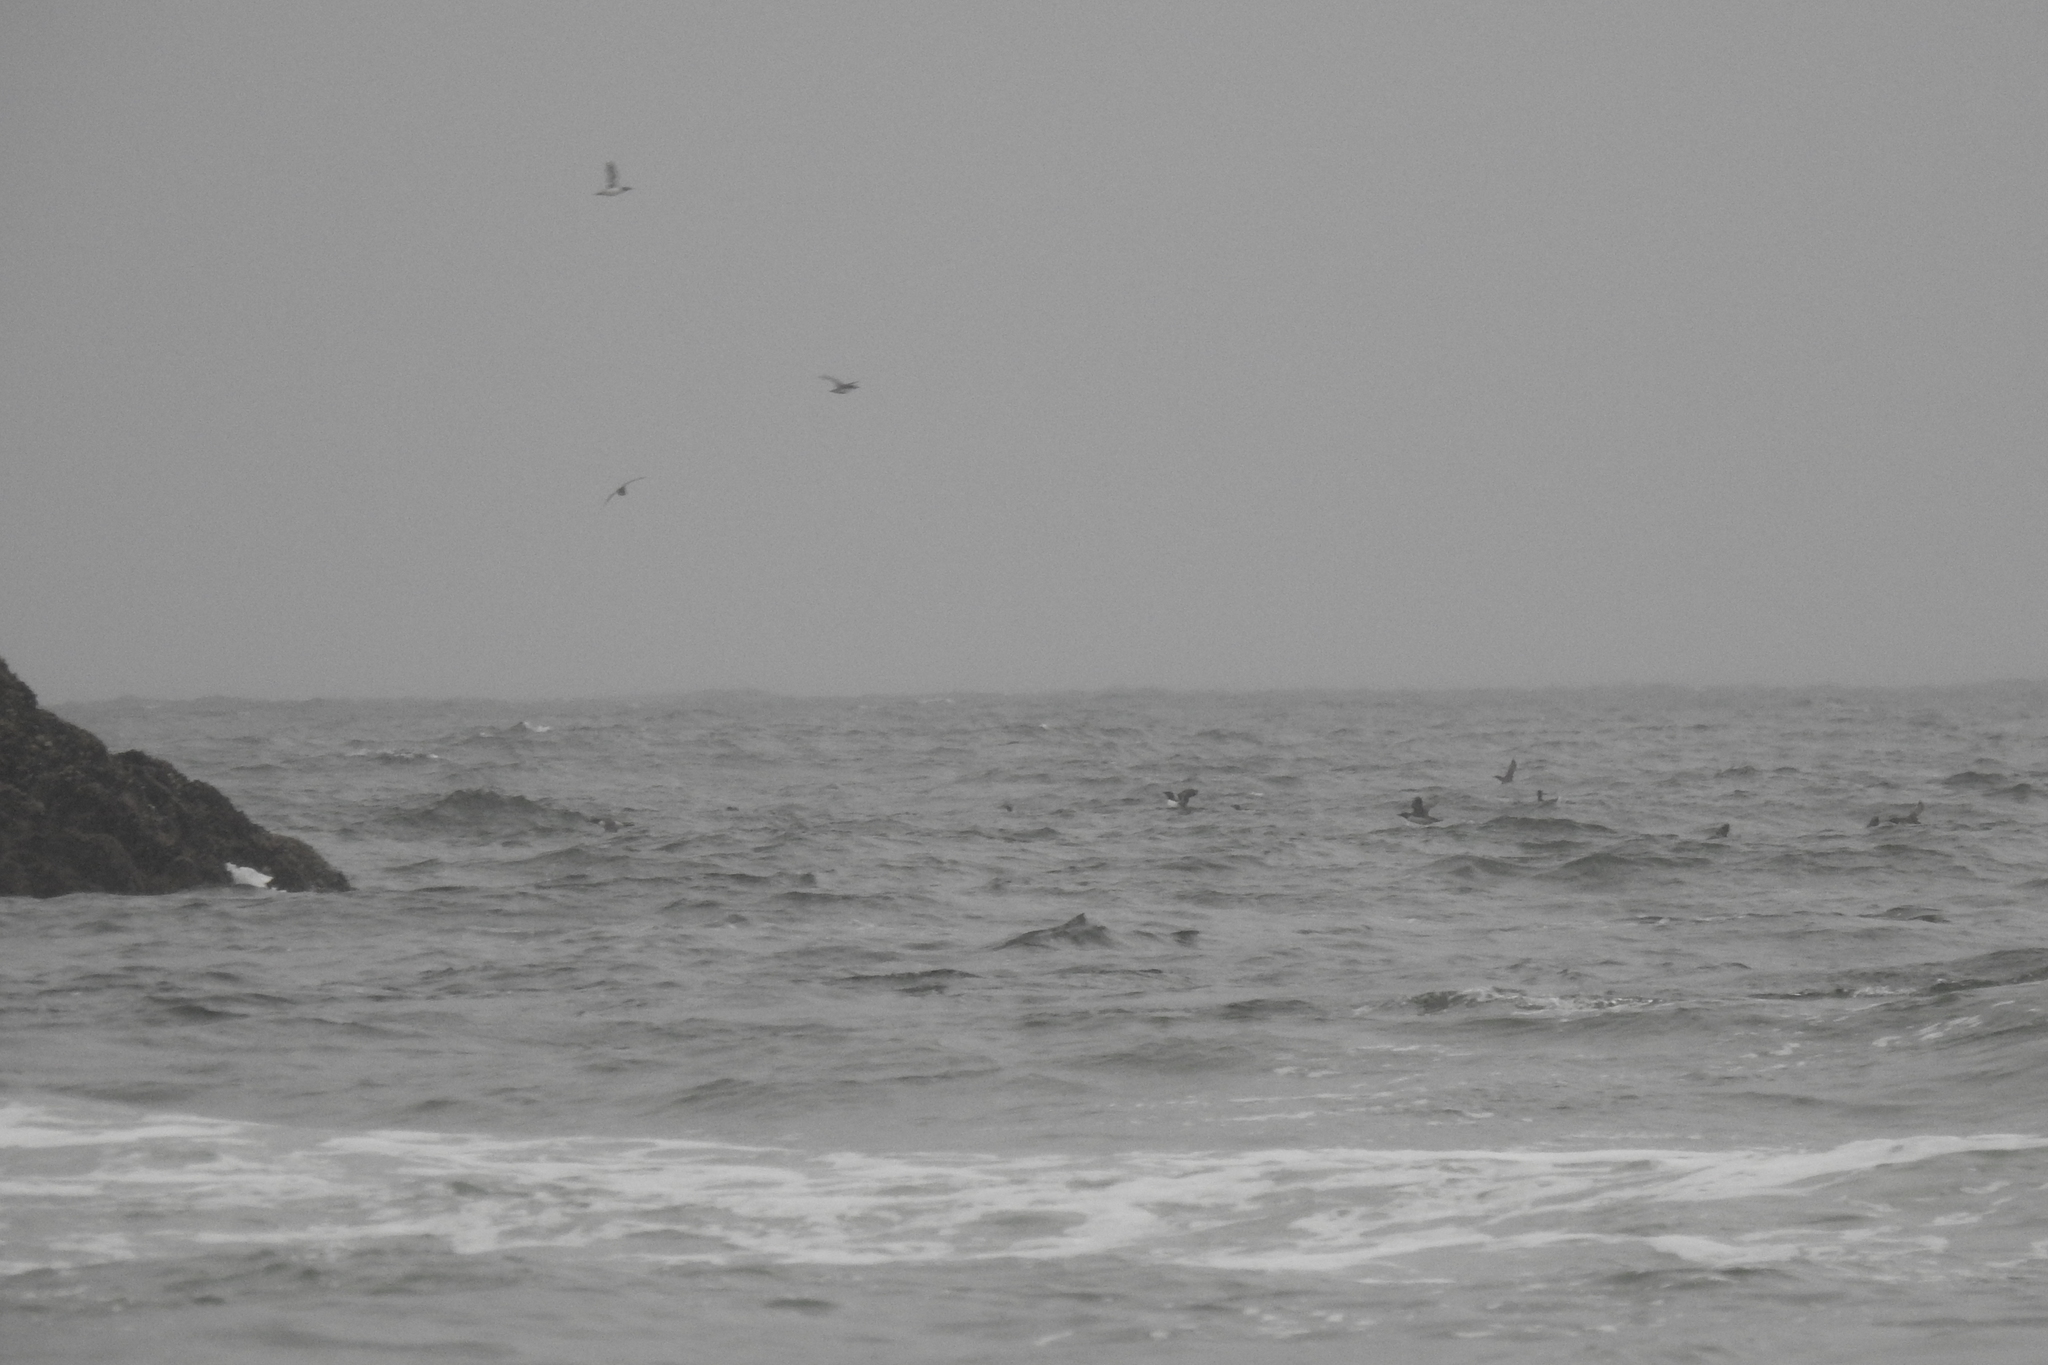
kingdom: Animalia
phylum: Chordata
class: Aves
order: Charadriiformes
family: Alcidae
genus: Uria
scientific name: Uria aalge
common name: Common murre
